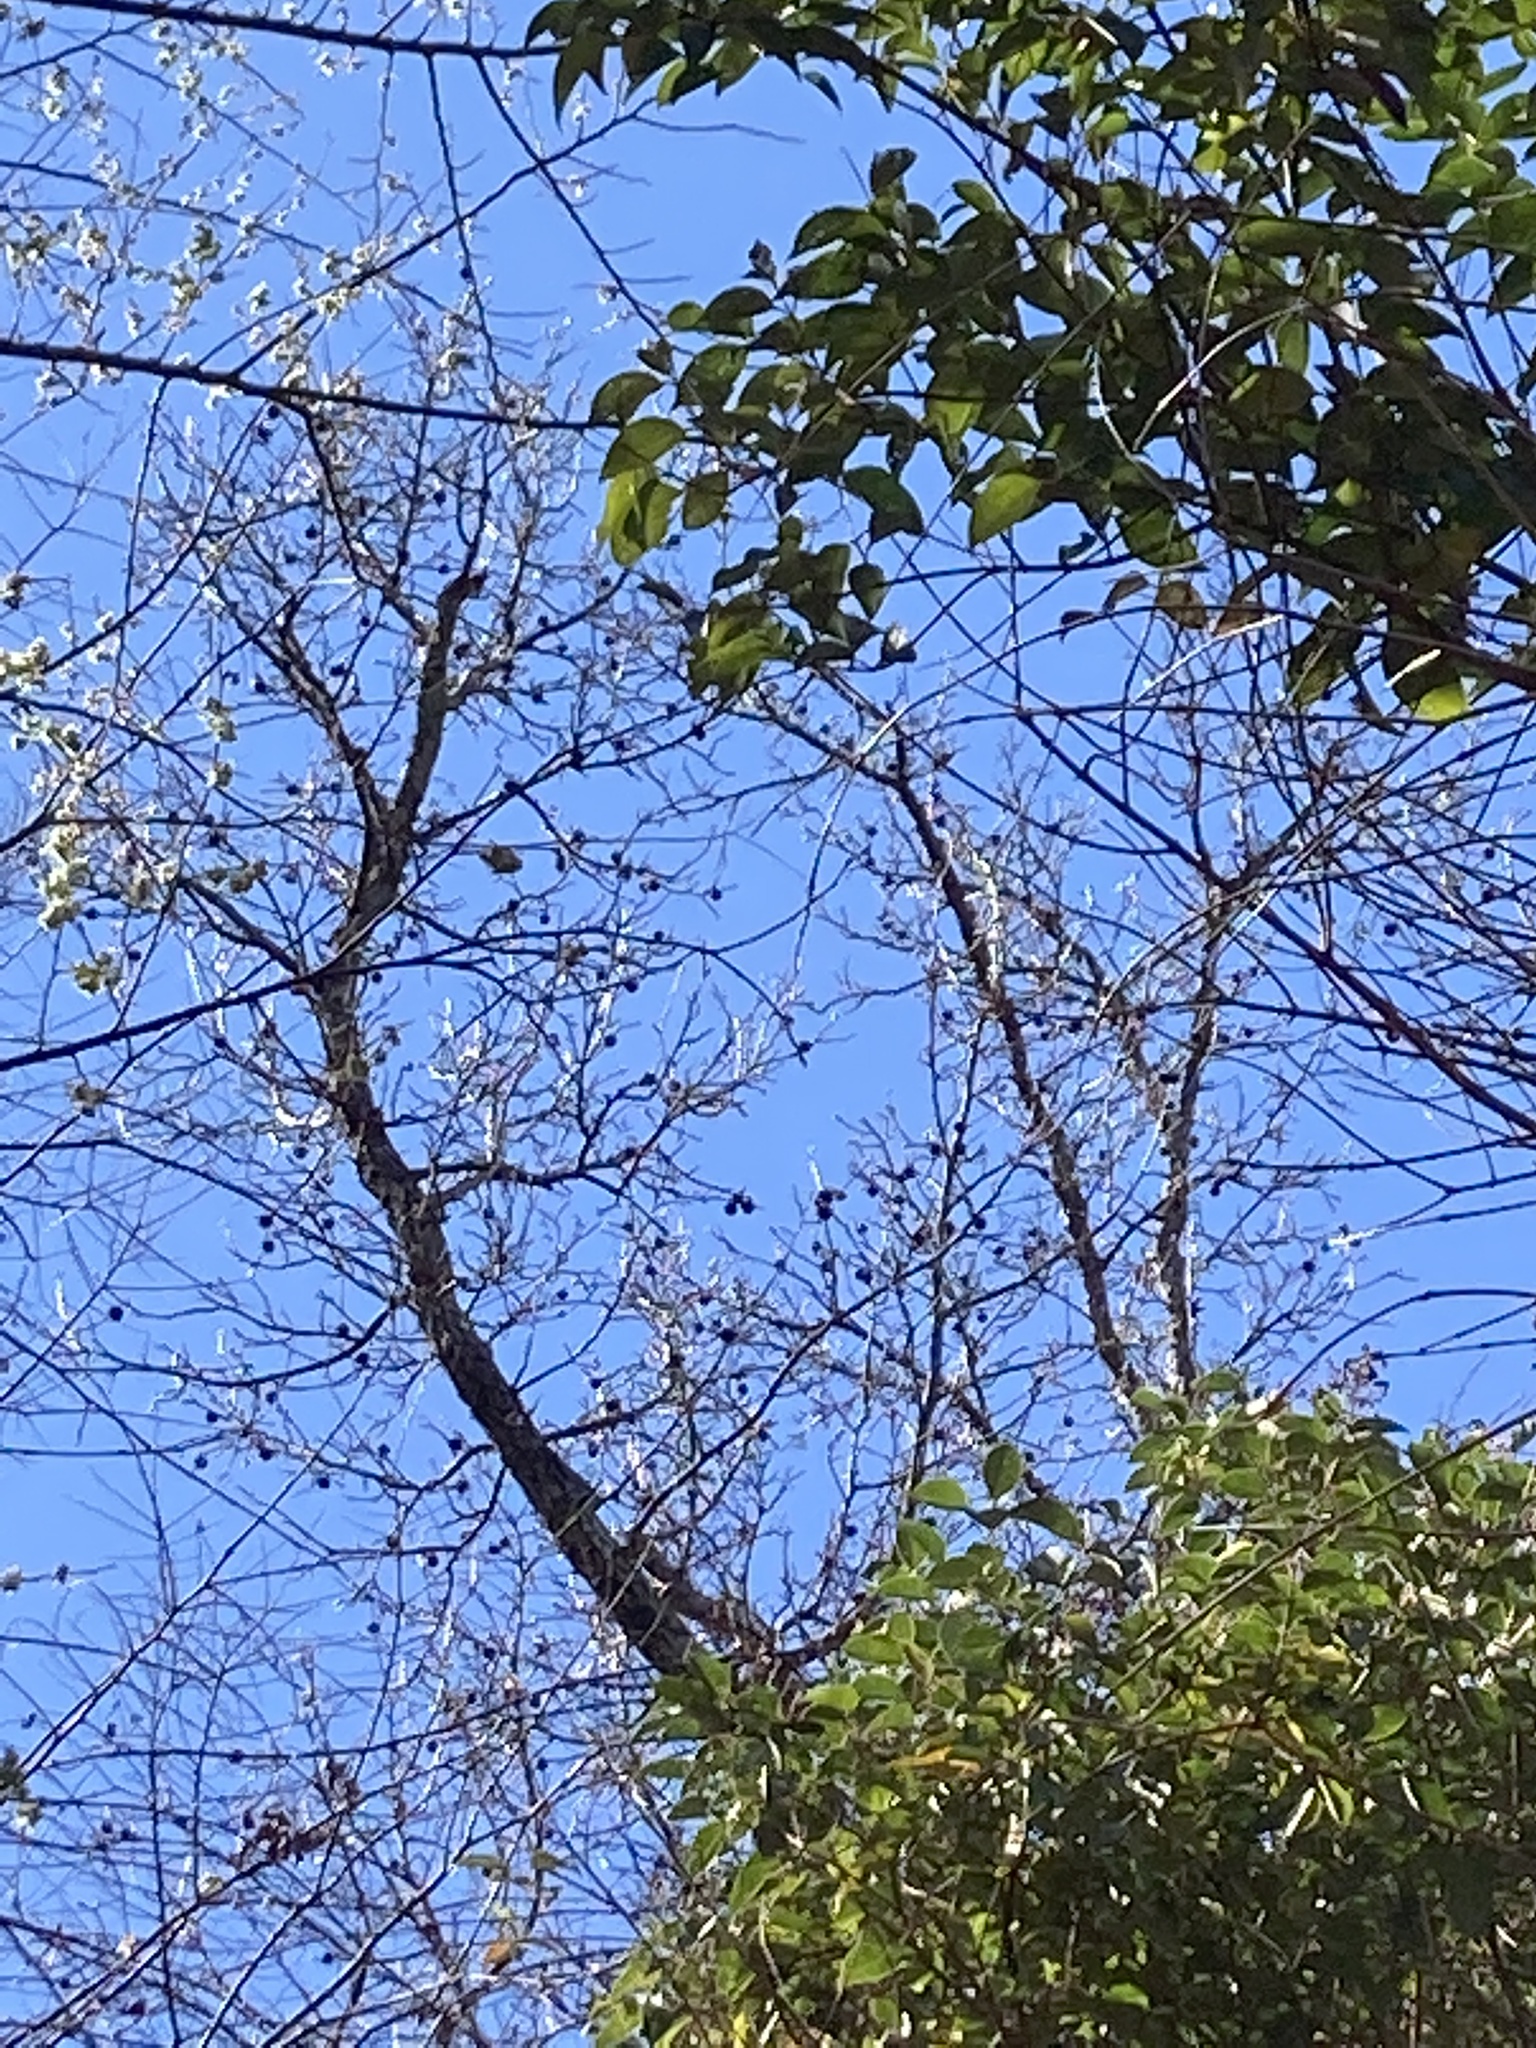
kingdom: Plantae
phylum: Tracheophyta
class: Magnoliopsida
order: Saxifragales
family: Altingiaceae
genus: Liquidambar
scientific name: Liquidambar styraciflua
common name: Sweet gum
